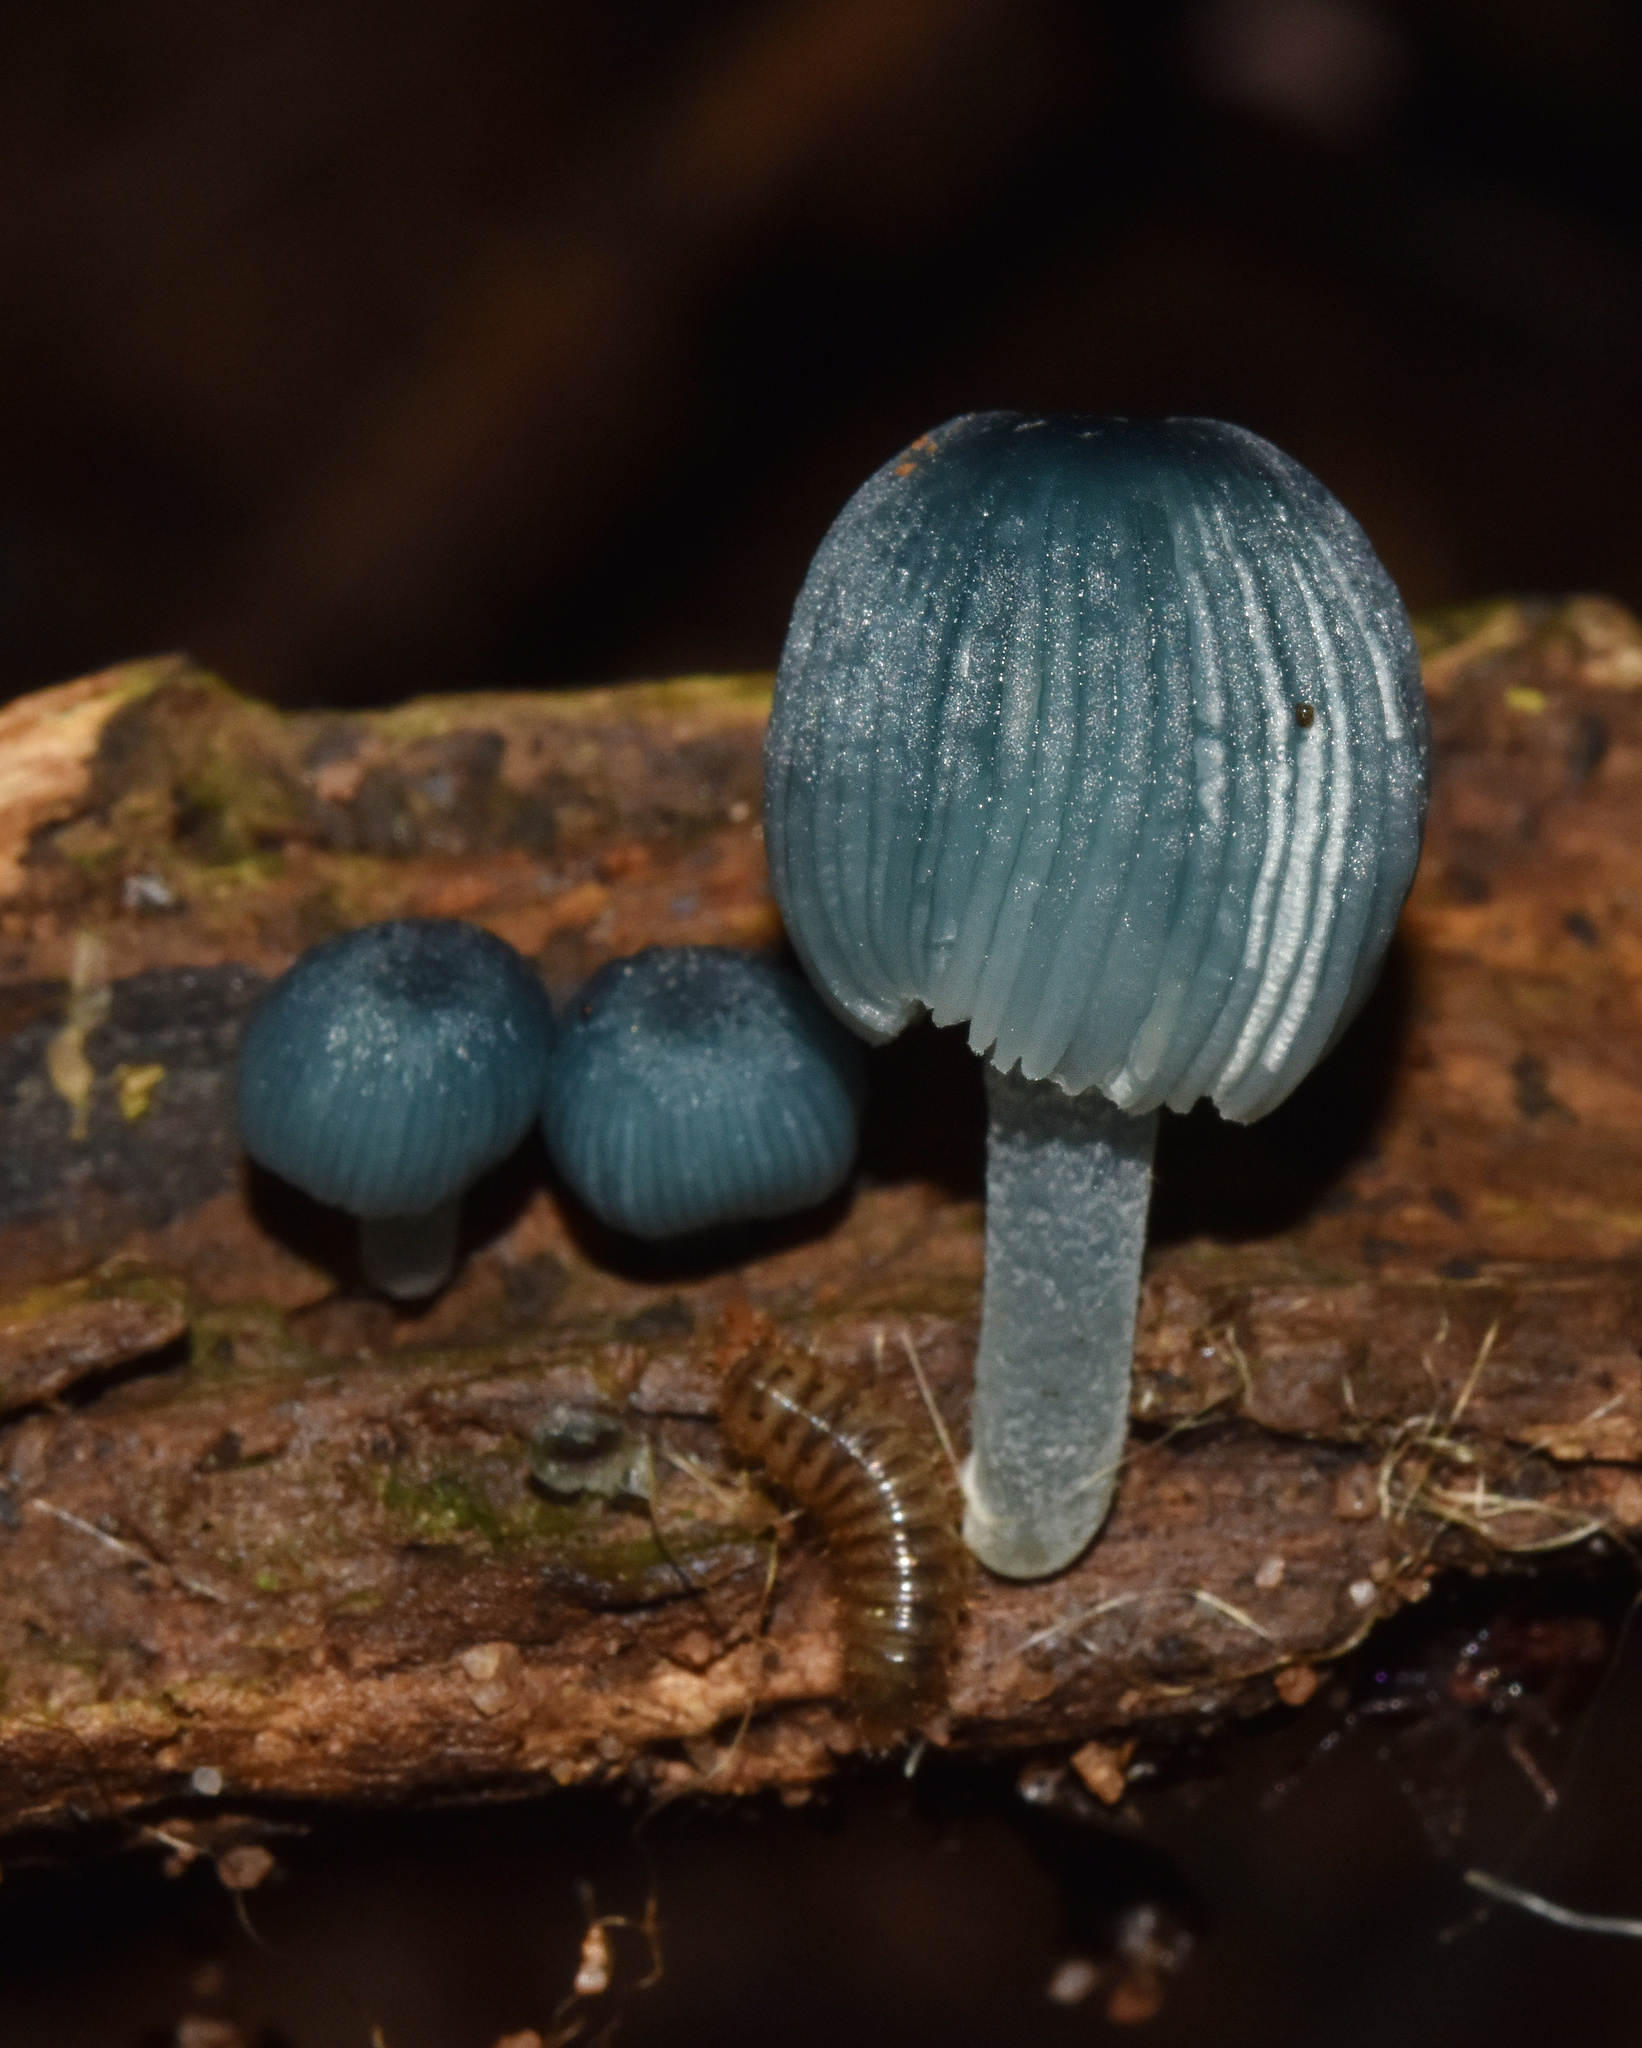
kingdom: Fungi
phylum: Basidiomycota
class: Agaricomycetes
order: Agaricales
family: Mycenaceae
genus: Mycena
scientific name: Mycena interrupta
